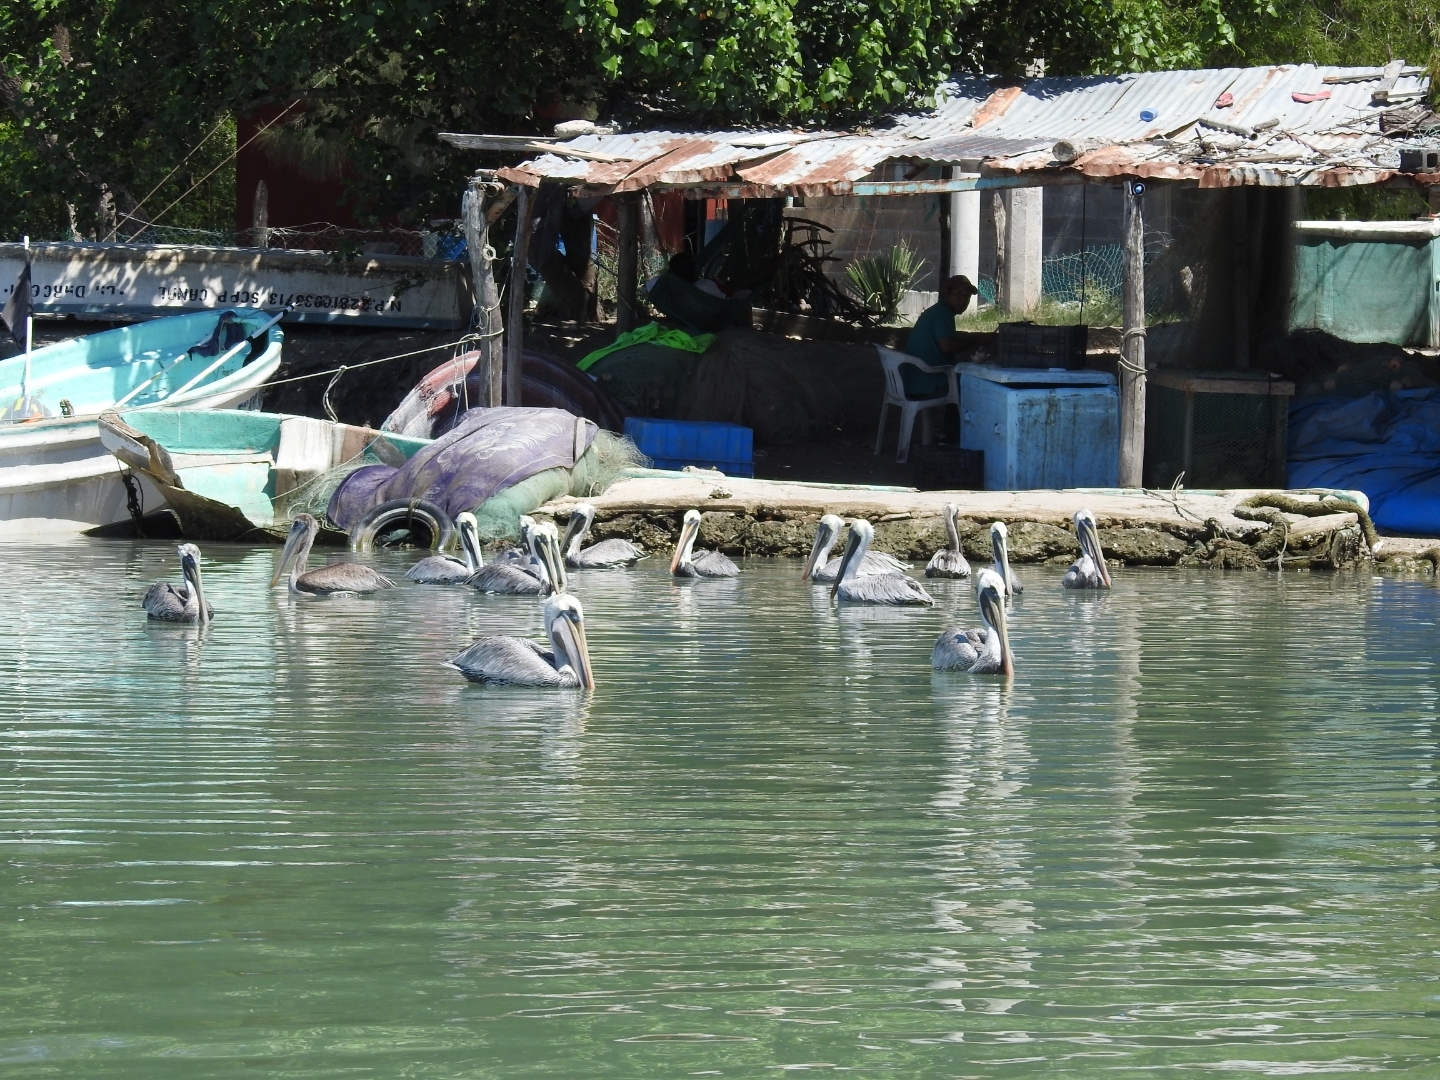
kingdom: Animalia
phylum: Chordata
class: Aves
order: Pelecaniformes
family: Pelecanidae
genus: Pelecanus
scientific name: Pelecanus occidentalis
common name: Brown pelican
